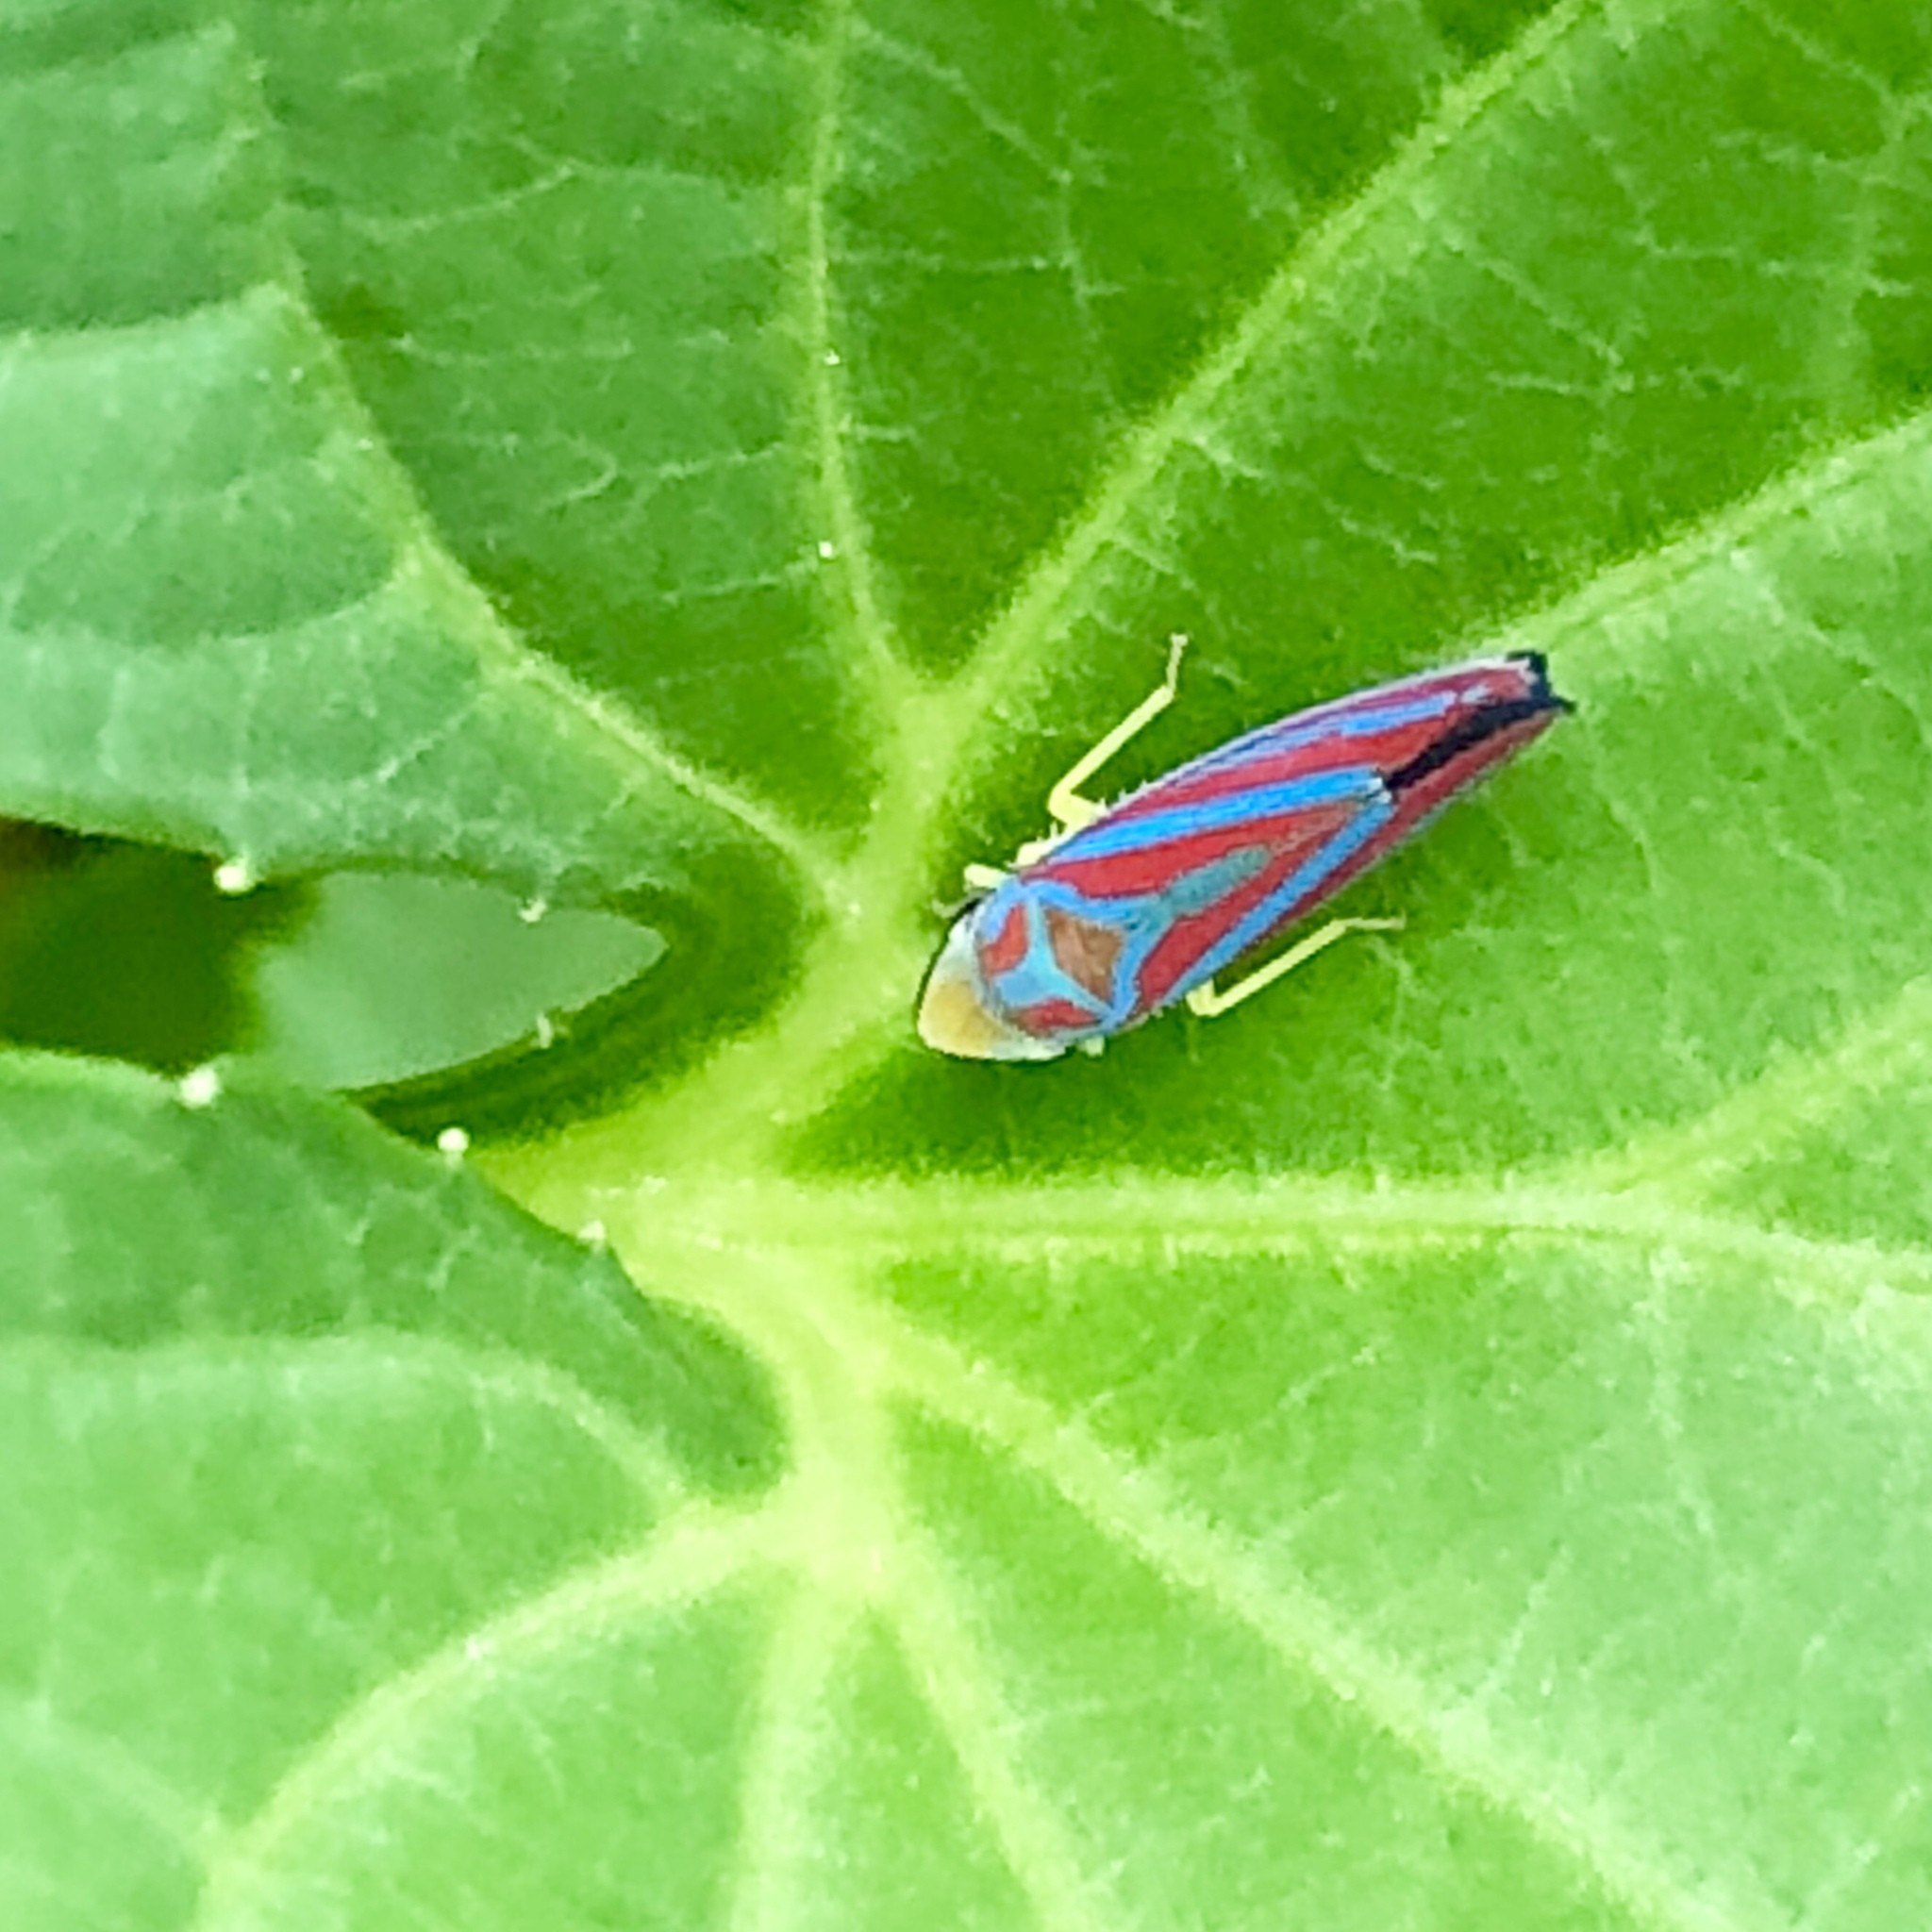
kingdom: Animalia
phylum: Arthropoda
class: Insecta
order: Hemiptera
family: Cicadellidae
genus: Graphocephala
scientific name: Graphocephala coccinea
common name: Candy-striped leafhopper
